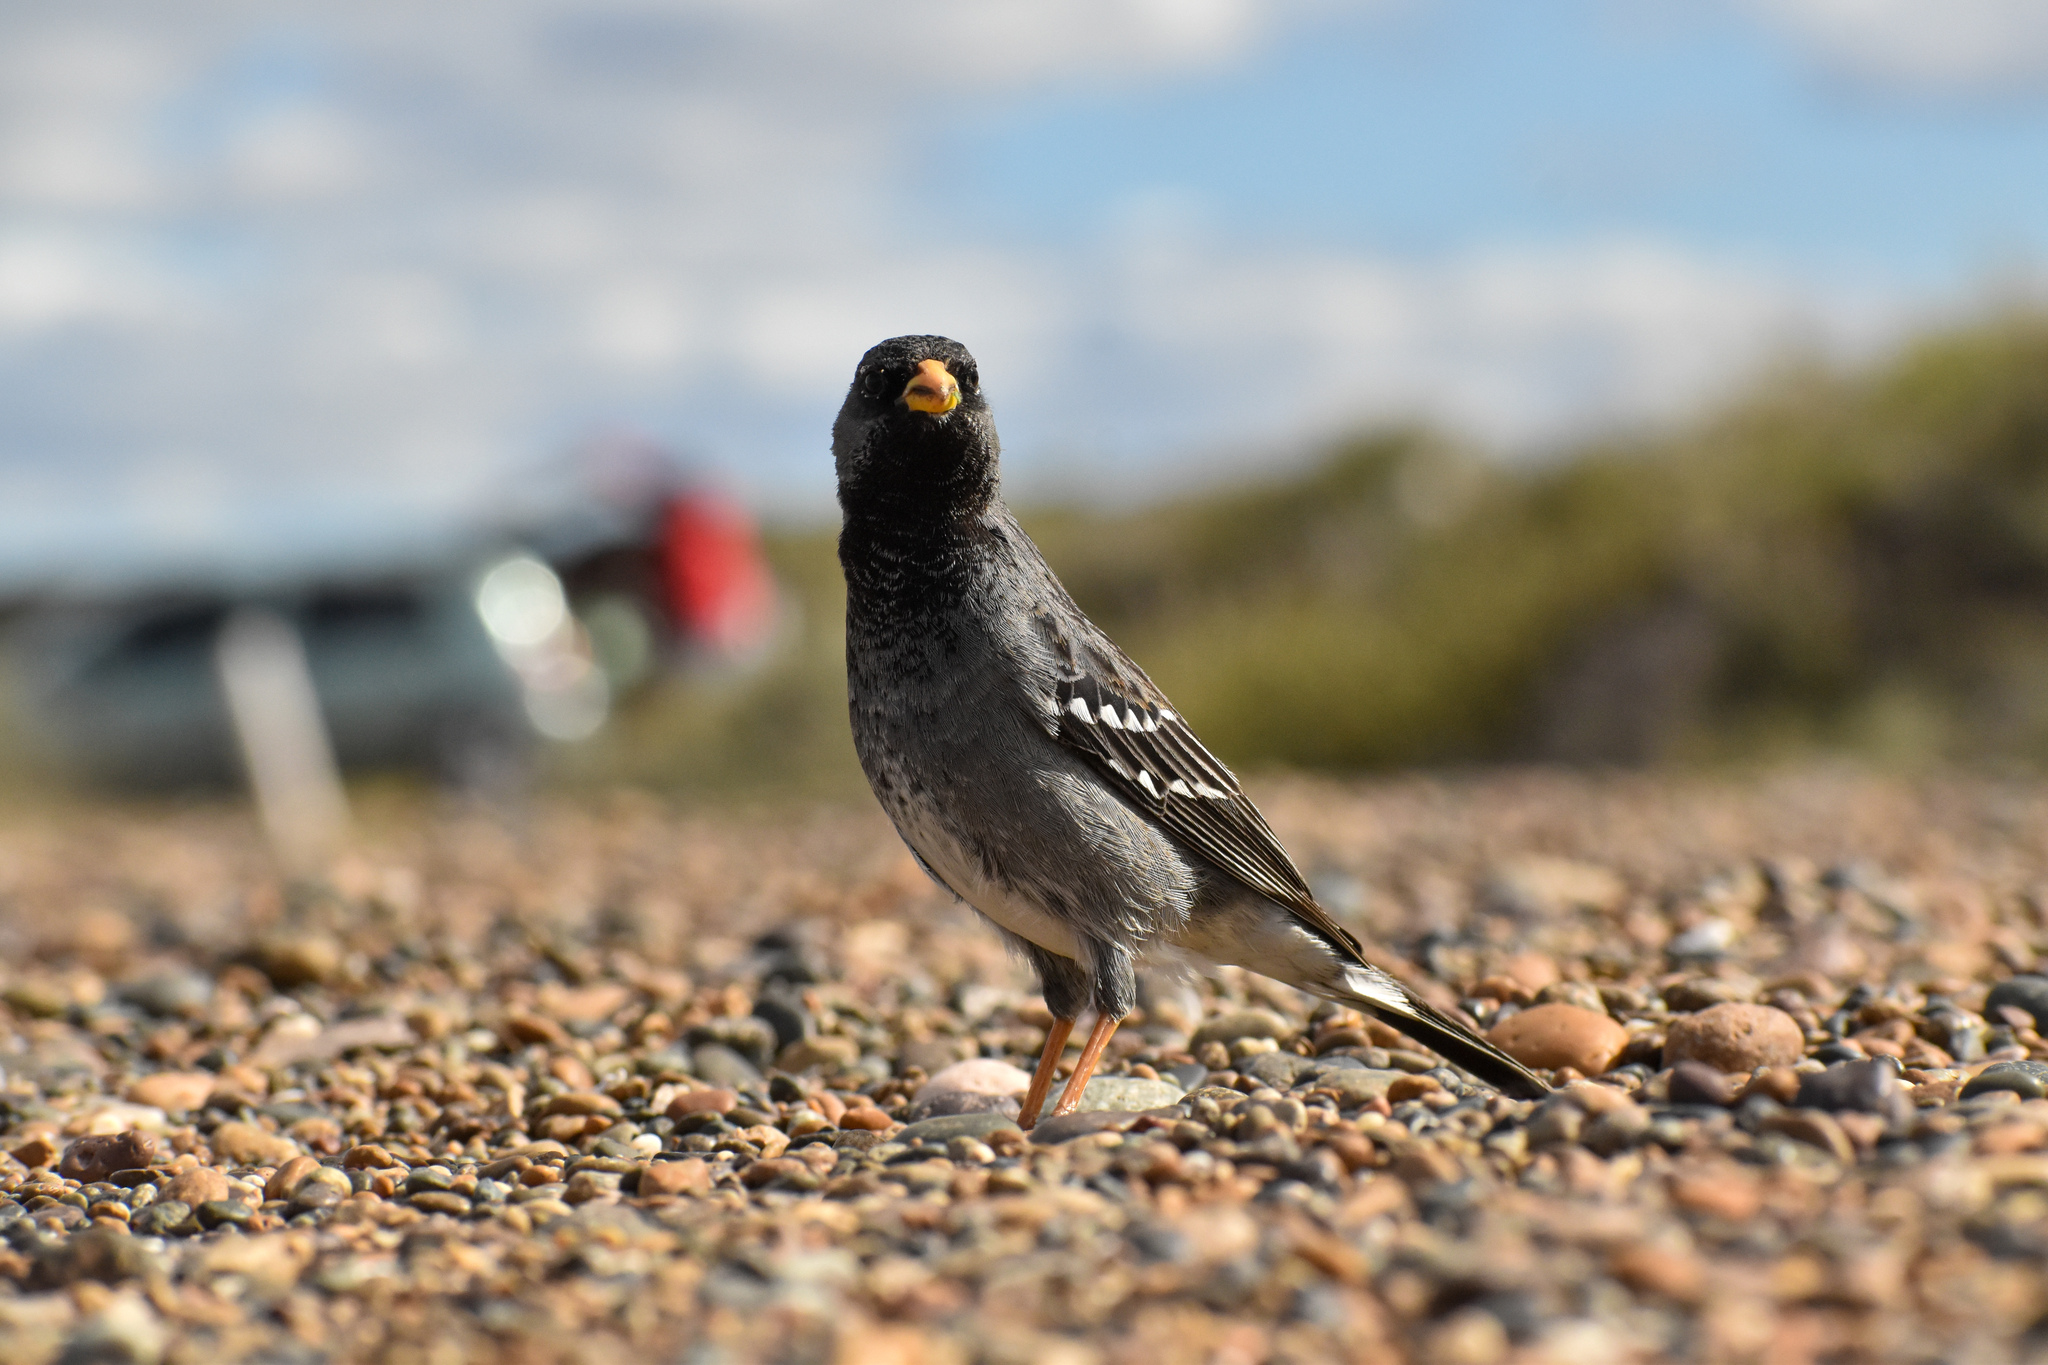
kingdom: Animalia
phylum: Chordata
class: Aves
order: Passeriformes
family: Thraupidae
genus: Rhopospina
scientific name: Rhopospina fruticeti
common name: Mourning sierra finch
